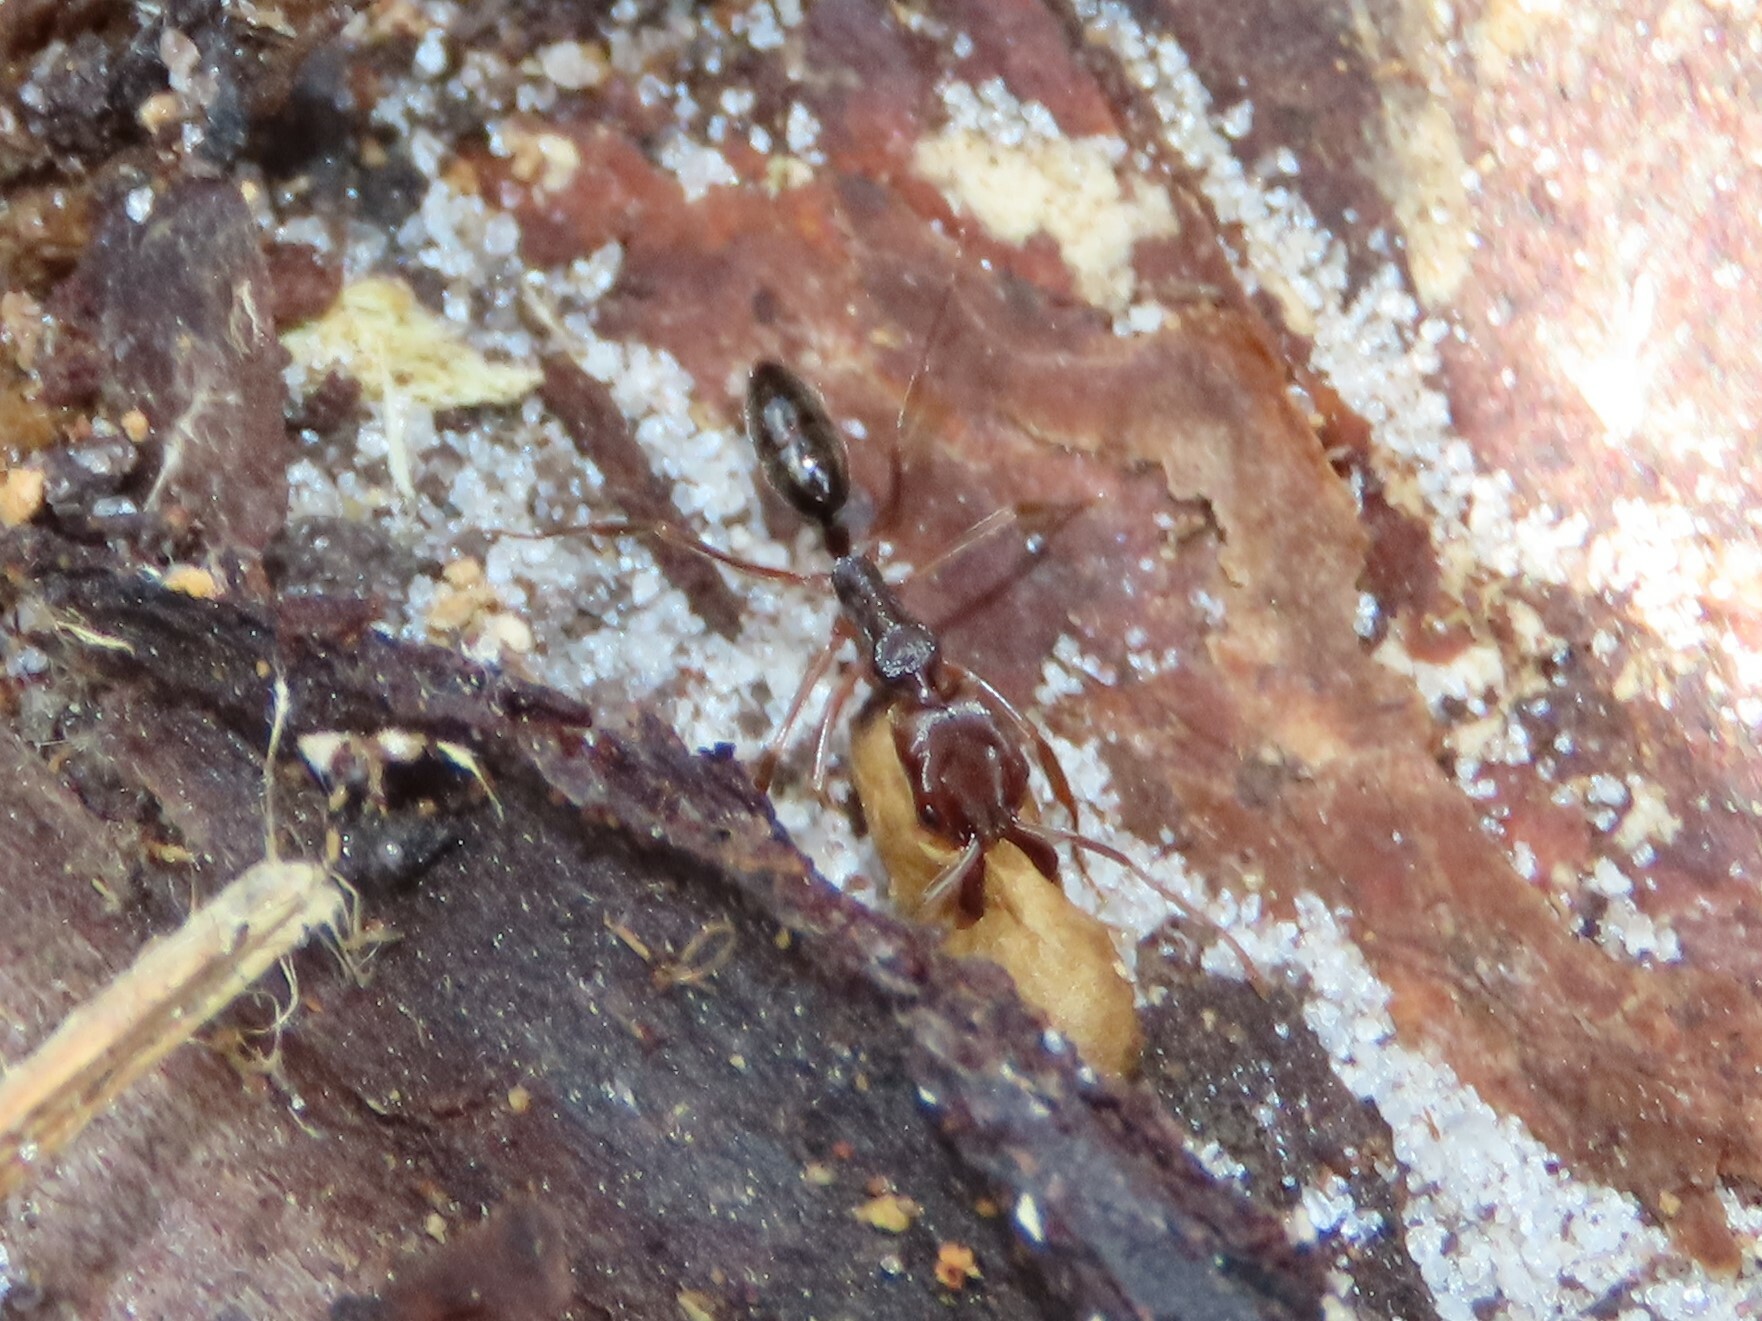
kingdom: Animalia
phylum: Arthropoda
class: Insecta
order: Hymenoptera
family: Formicidae
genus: Odontomachus
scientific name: Odontomachus ruginodis
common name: Trapjaw ant
